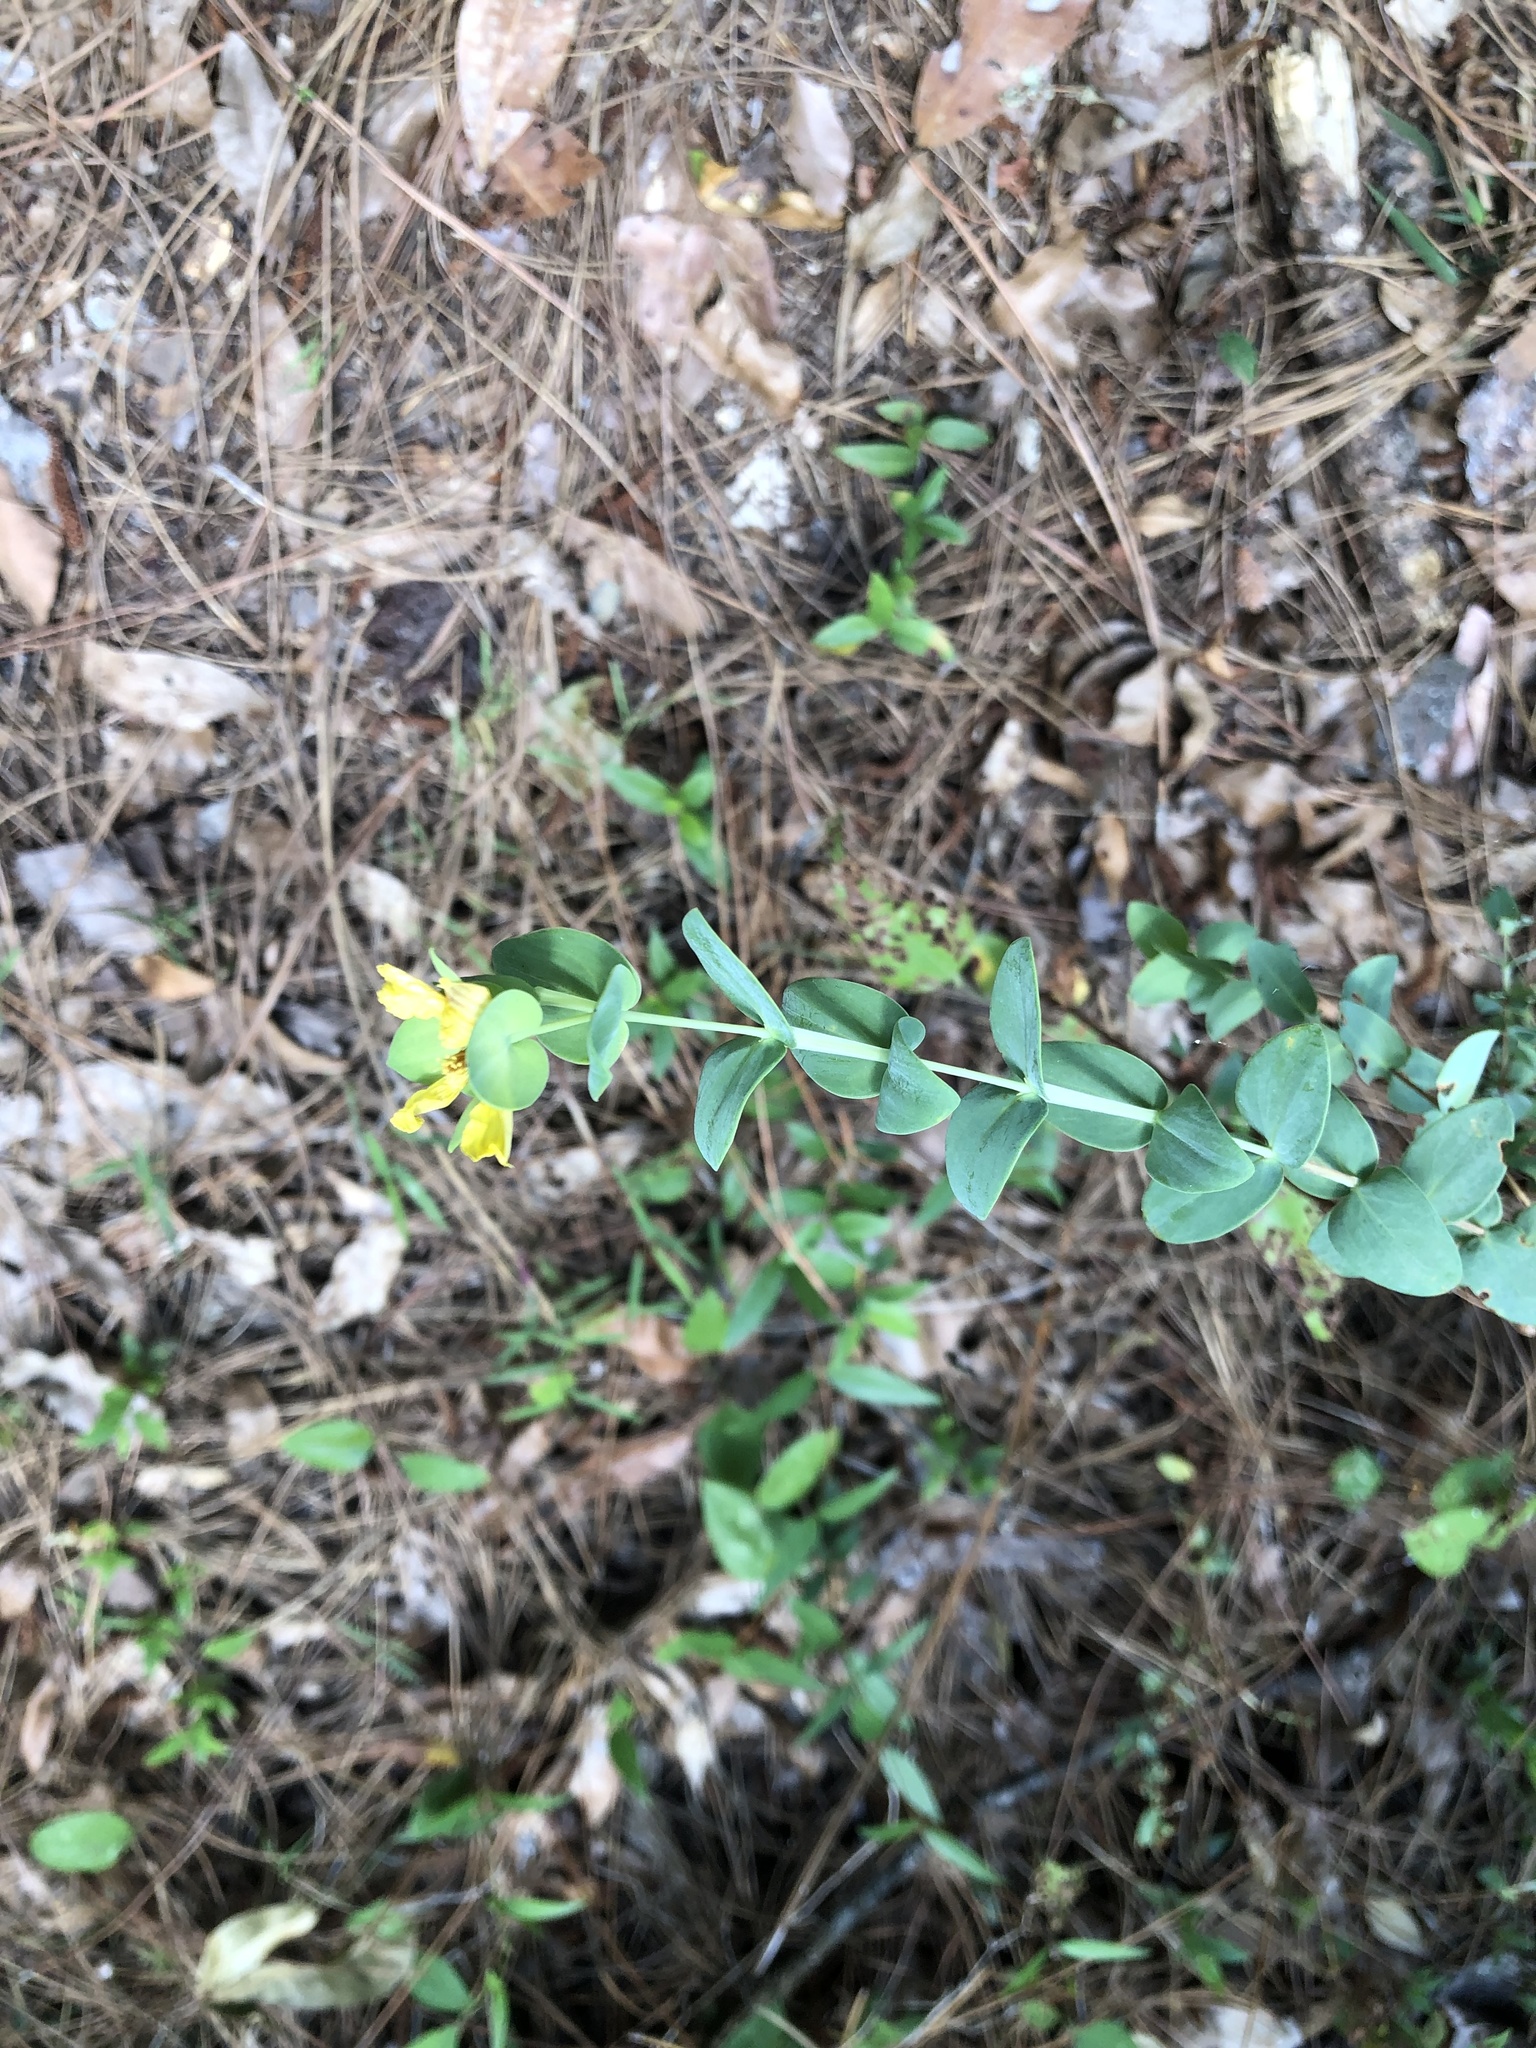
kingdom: Plantae
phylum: Tracheophyta
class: Magnoliopsida
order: Malpighiales
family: Hypericaceae
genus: Hypericum
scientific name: Hypericum tetrapetalum
